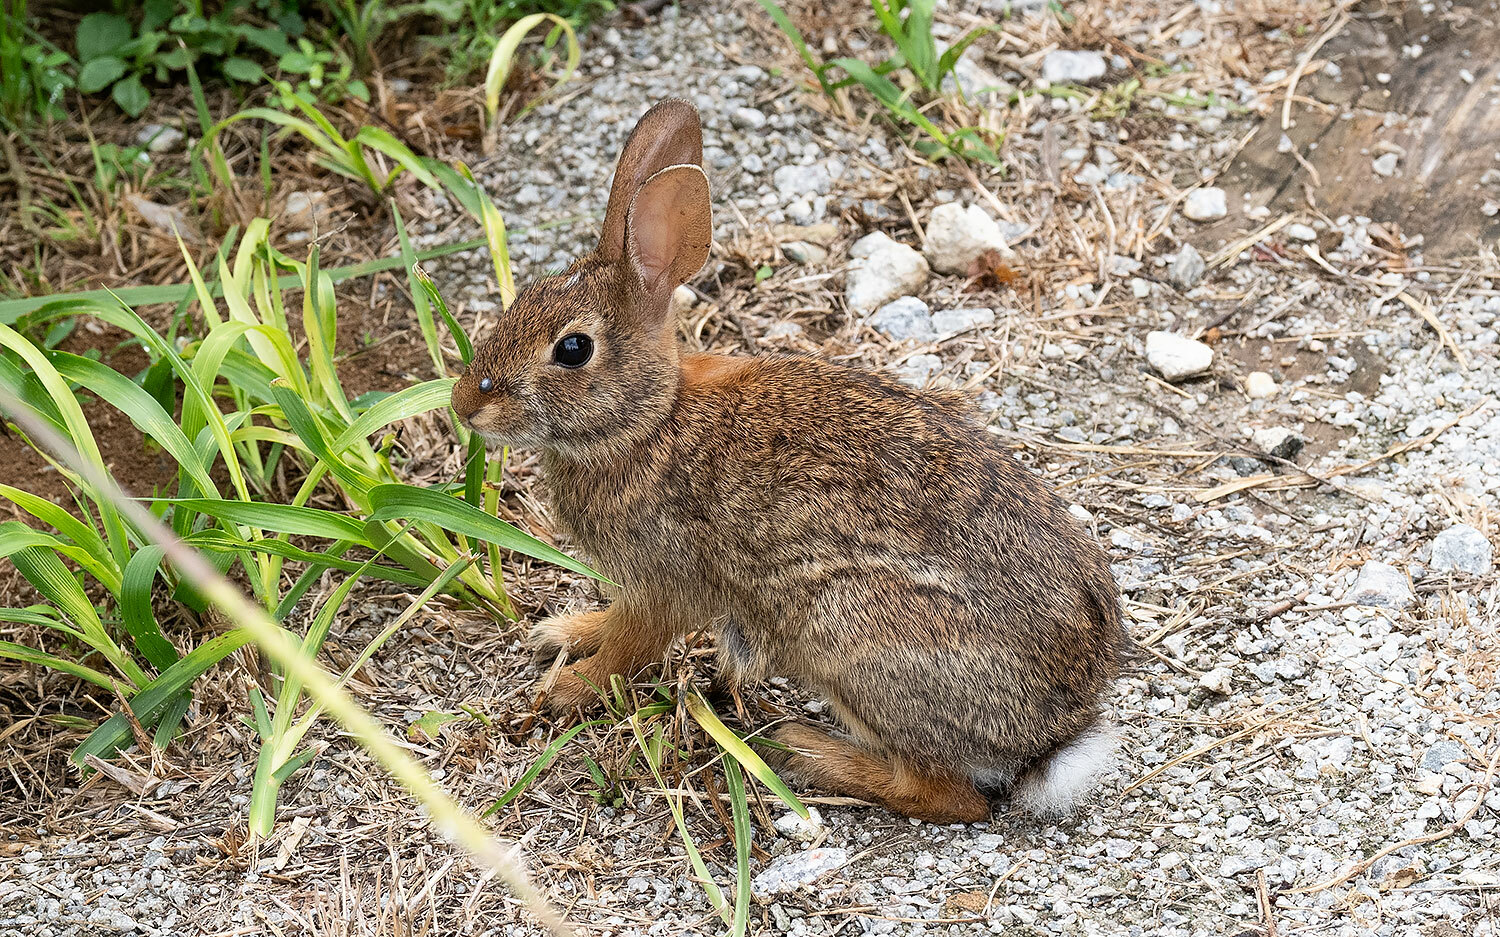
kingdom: Animalia
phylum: Chordata
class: Mammalia
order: Lagomorpha
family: Leporidae
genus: Sylvilagus
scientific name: Sylvilagus floridanus
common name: Eastern cottontail
